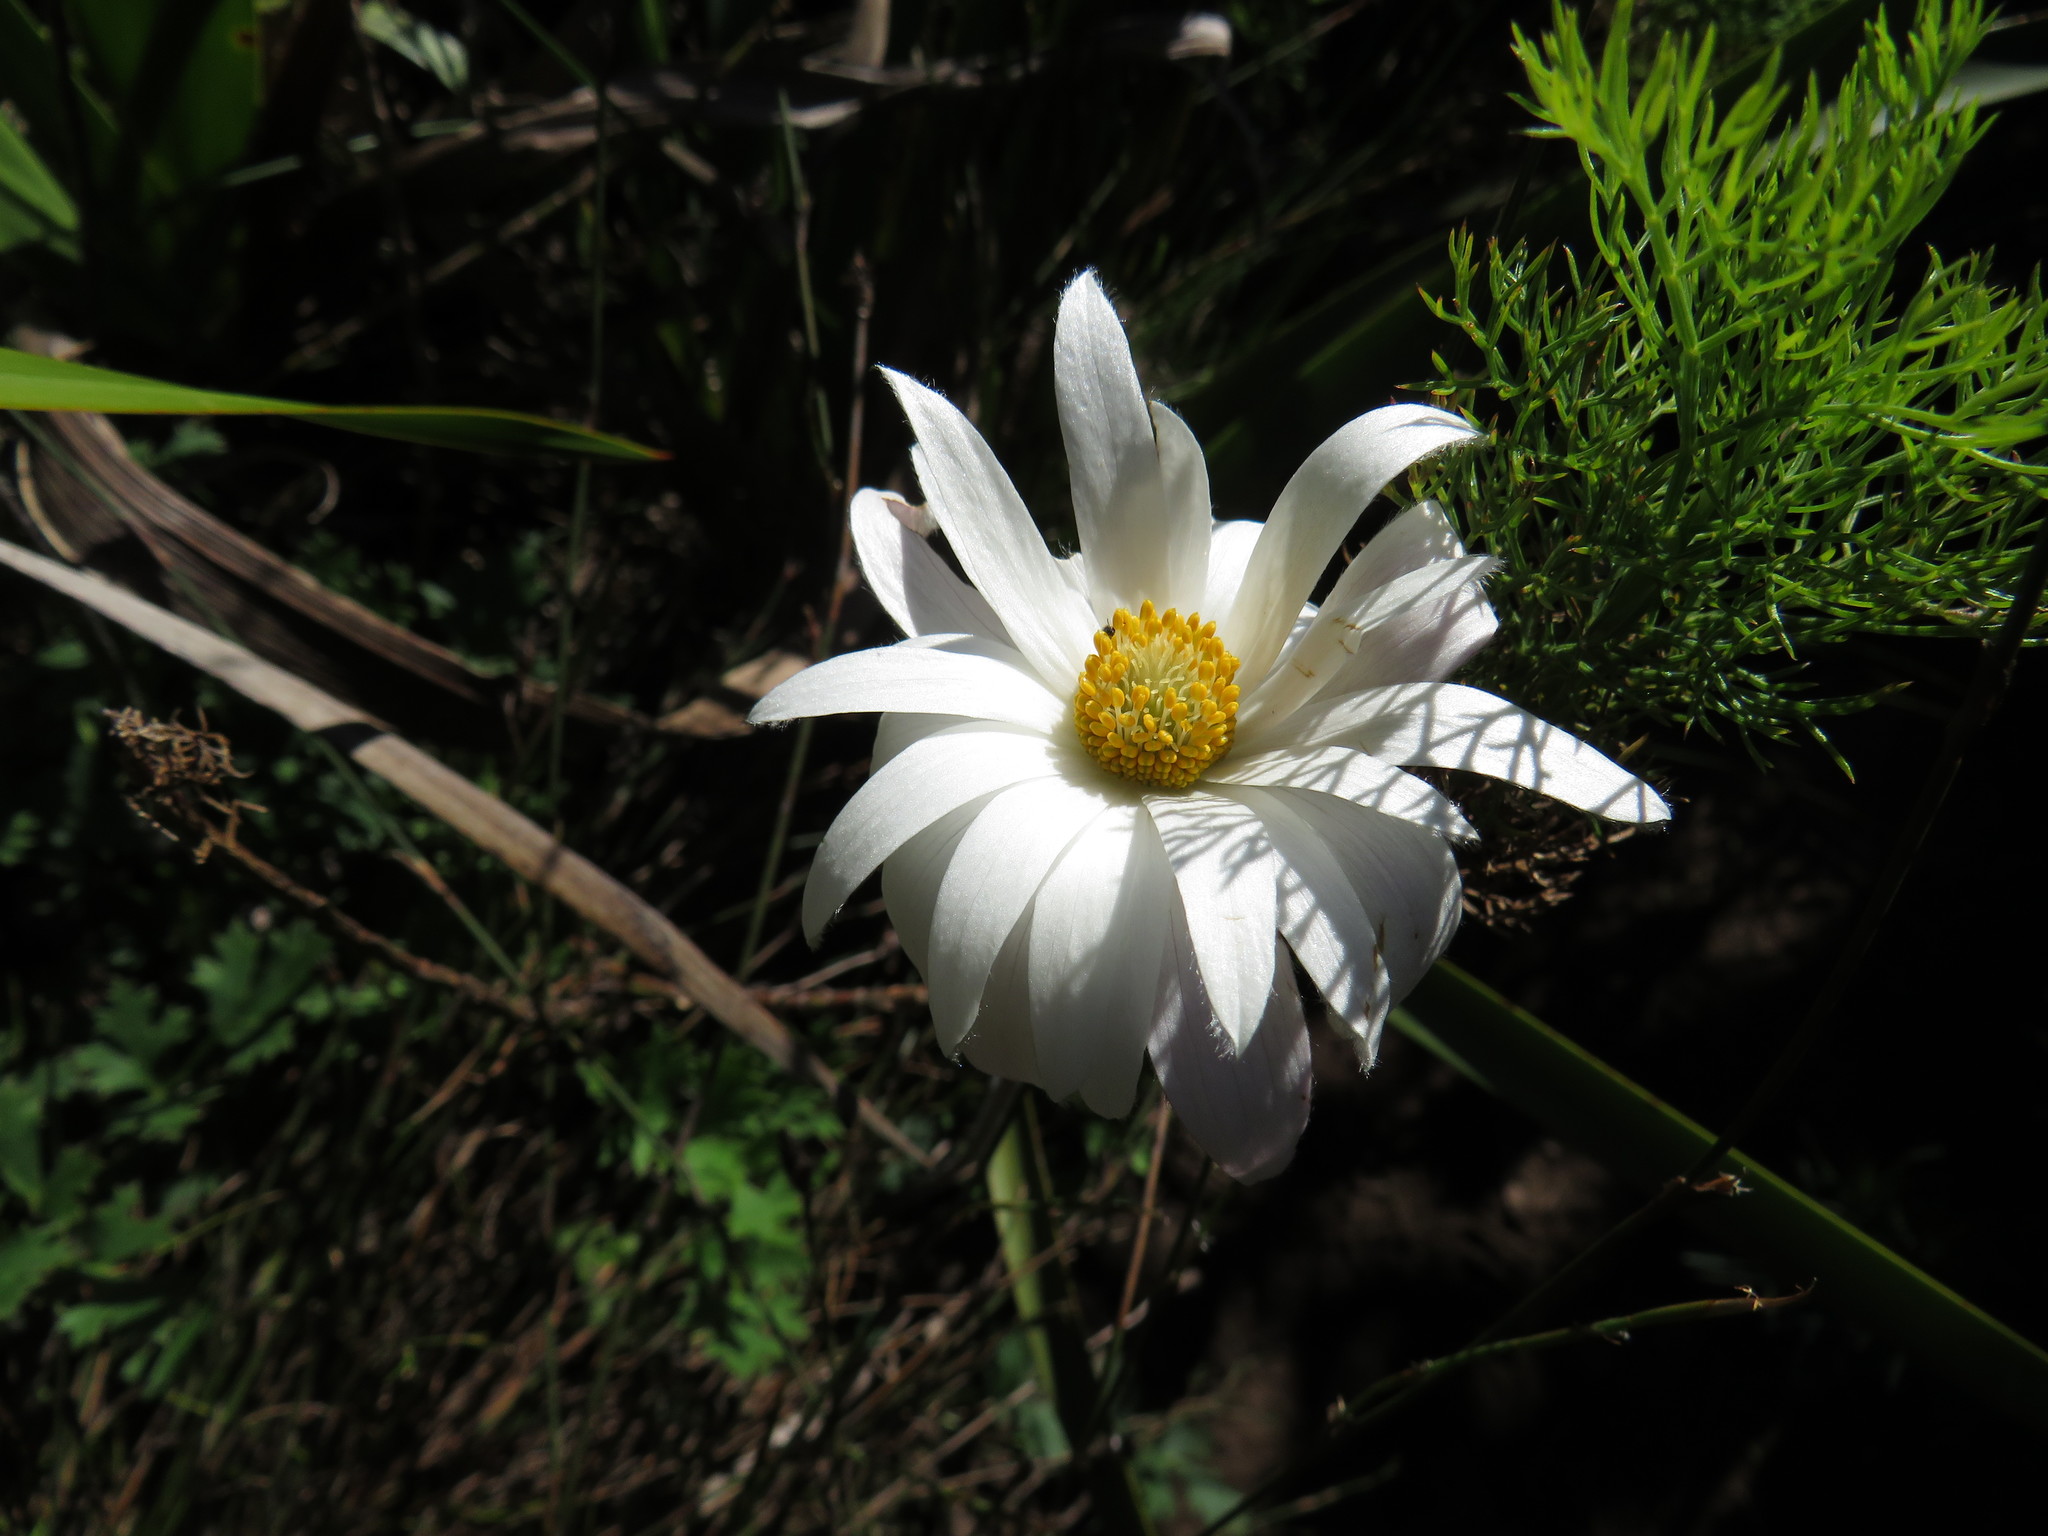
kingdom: Plantae
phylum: Tracheophyta
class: Magnoliopsida
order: Ranunculales
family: Ranunculaceae
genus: Knowltonia
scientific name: Knowltonia tenuifolia
